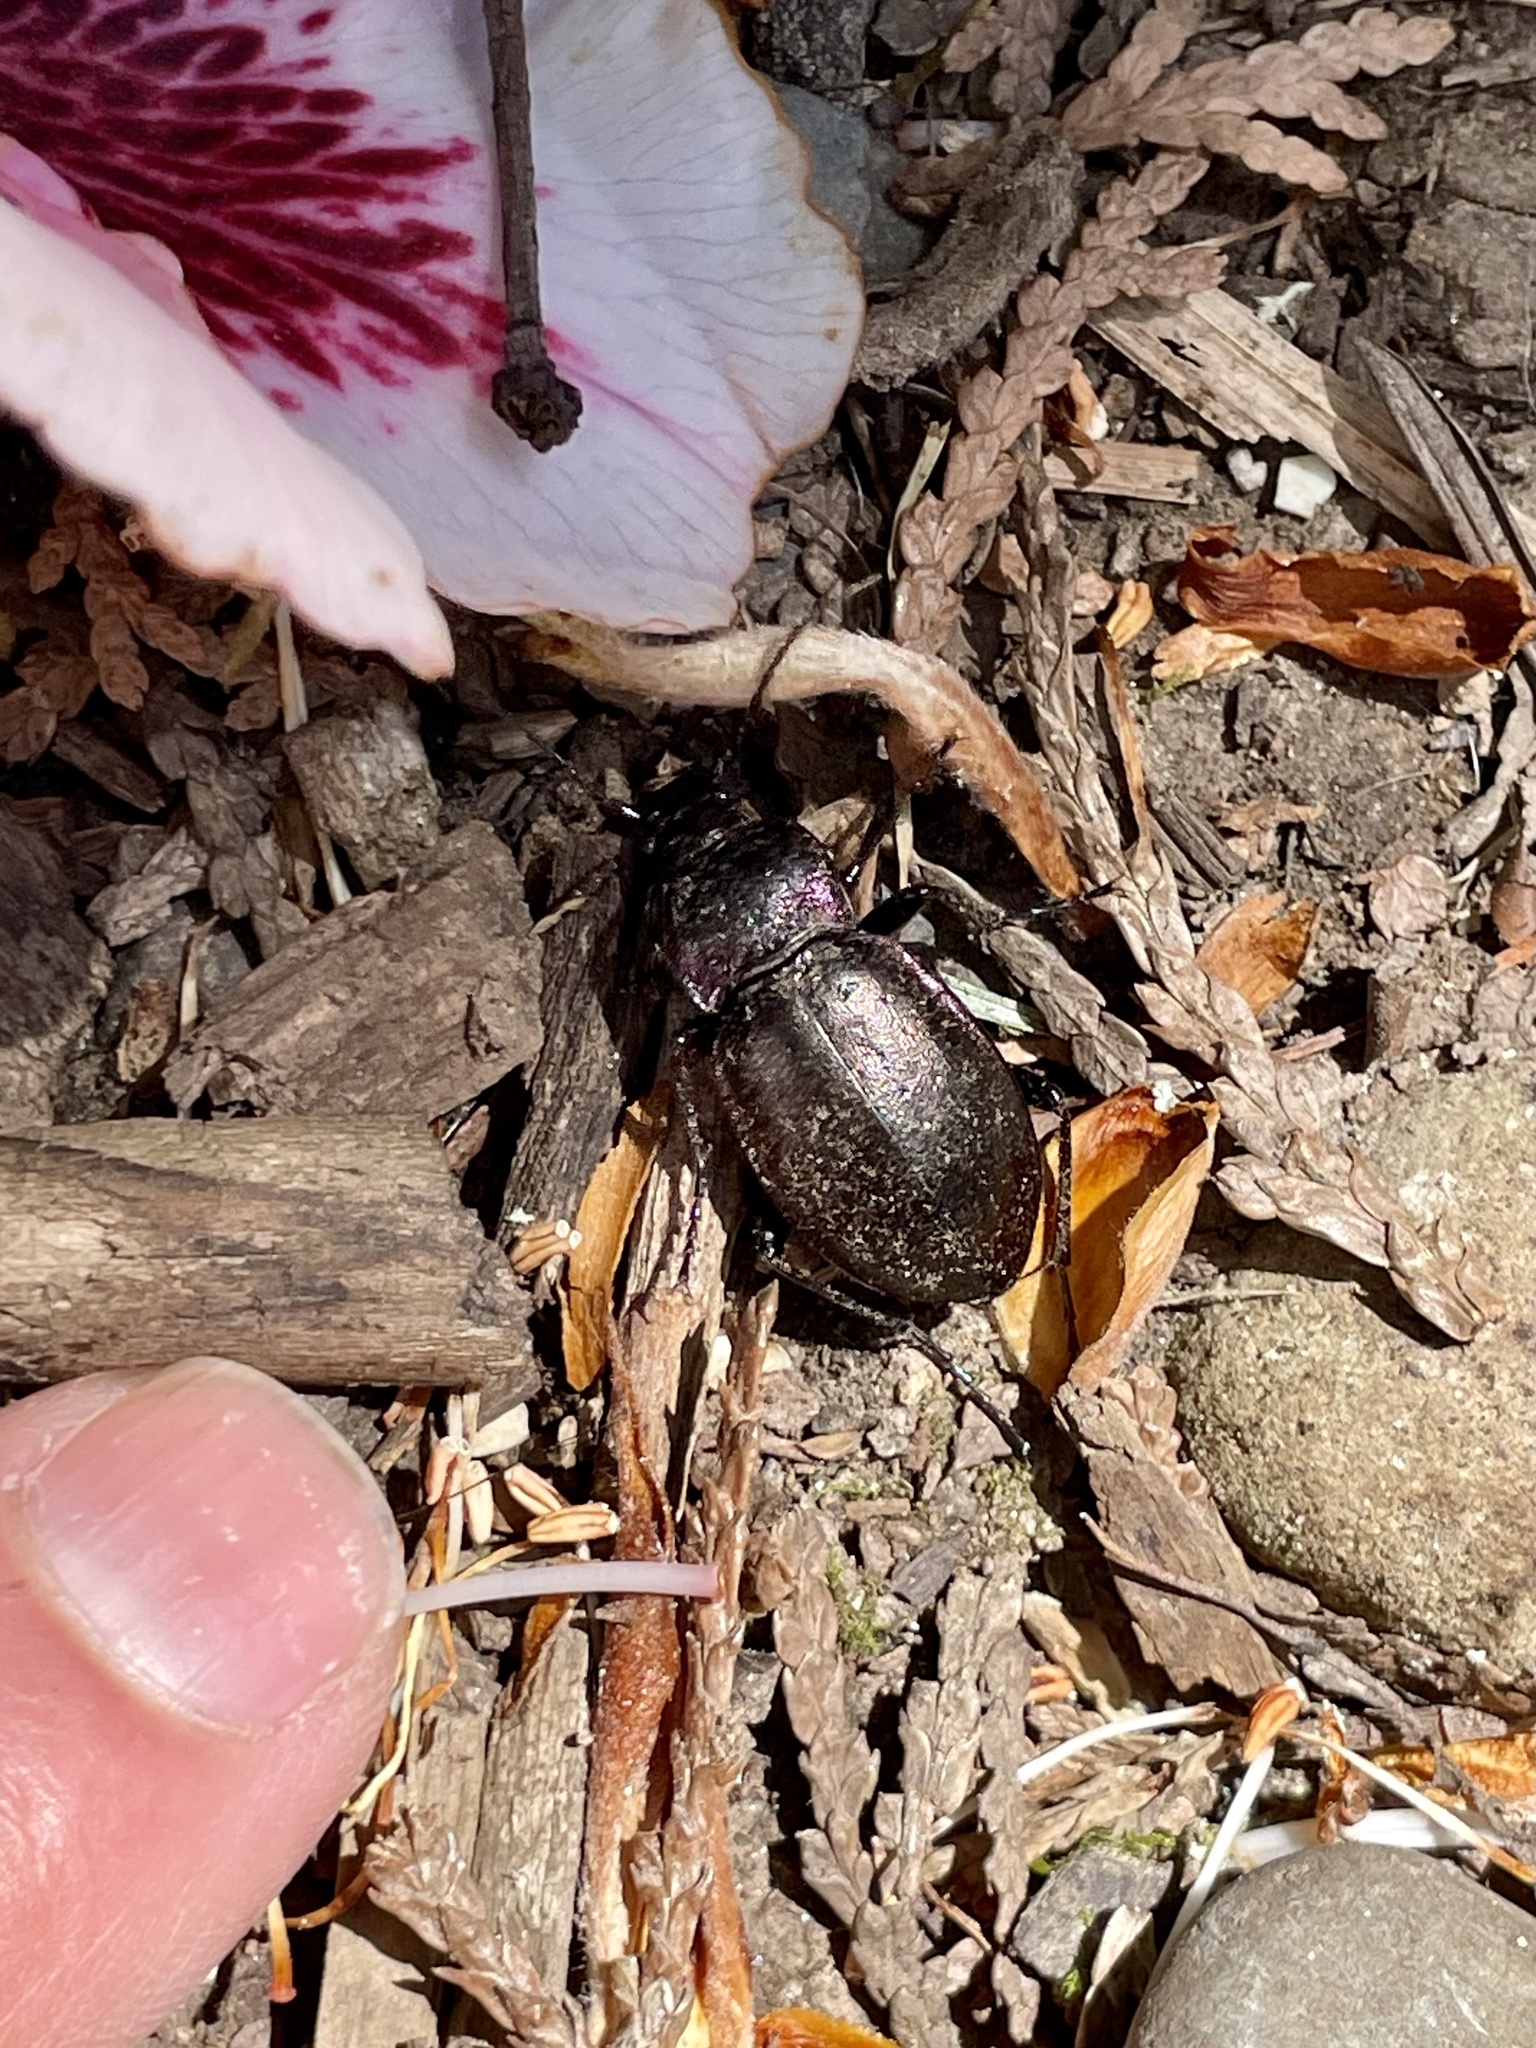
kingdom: Animalia
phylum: Arthropoda
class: Insecta
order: Coleoptera
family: Carabidae
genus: Carabus
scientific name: Carabus nemoralis
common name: European ground beetle
